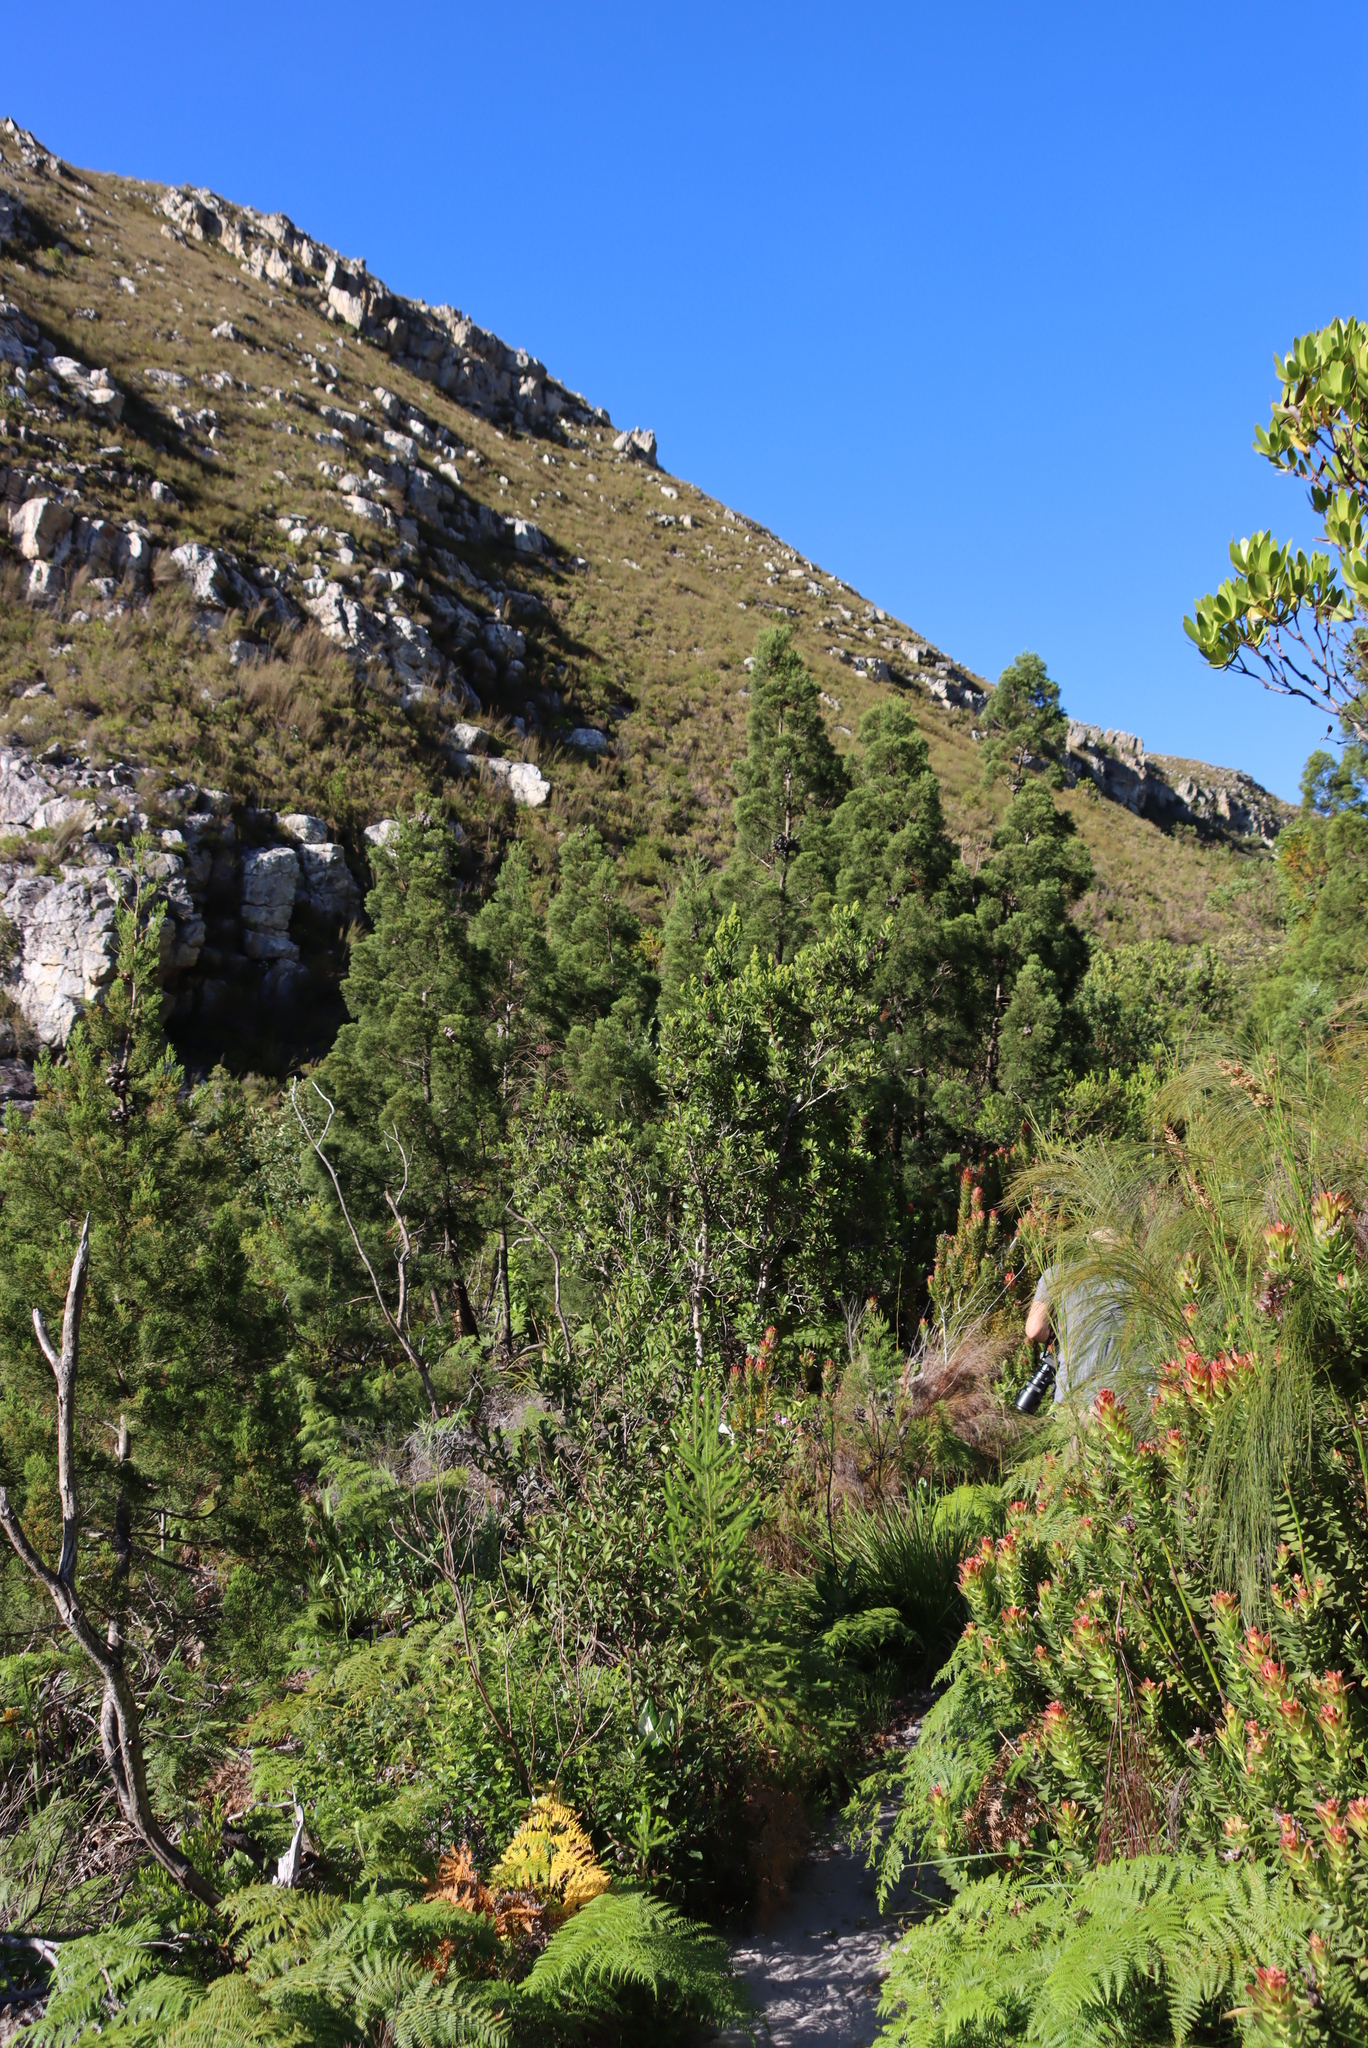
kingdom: Plantae
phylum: Tracheophyta
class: Pinopsida
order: Pinales
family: Cupressaceae
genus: Widdringtonia
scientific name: Widdringtonia nodiflora
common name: Cape cypress
